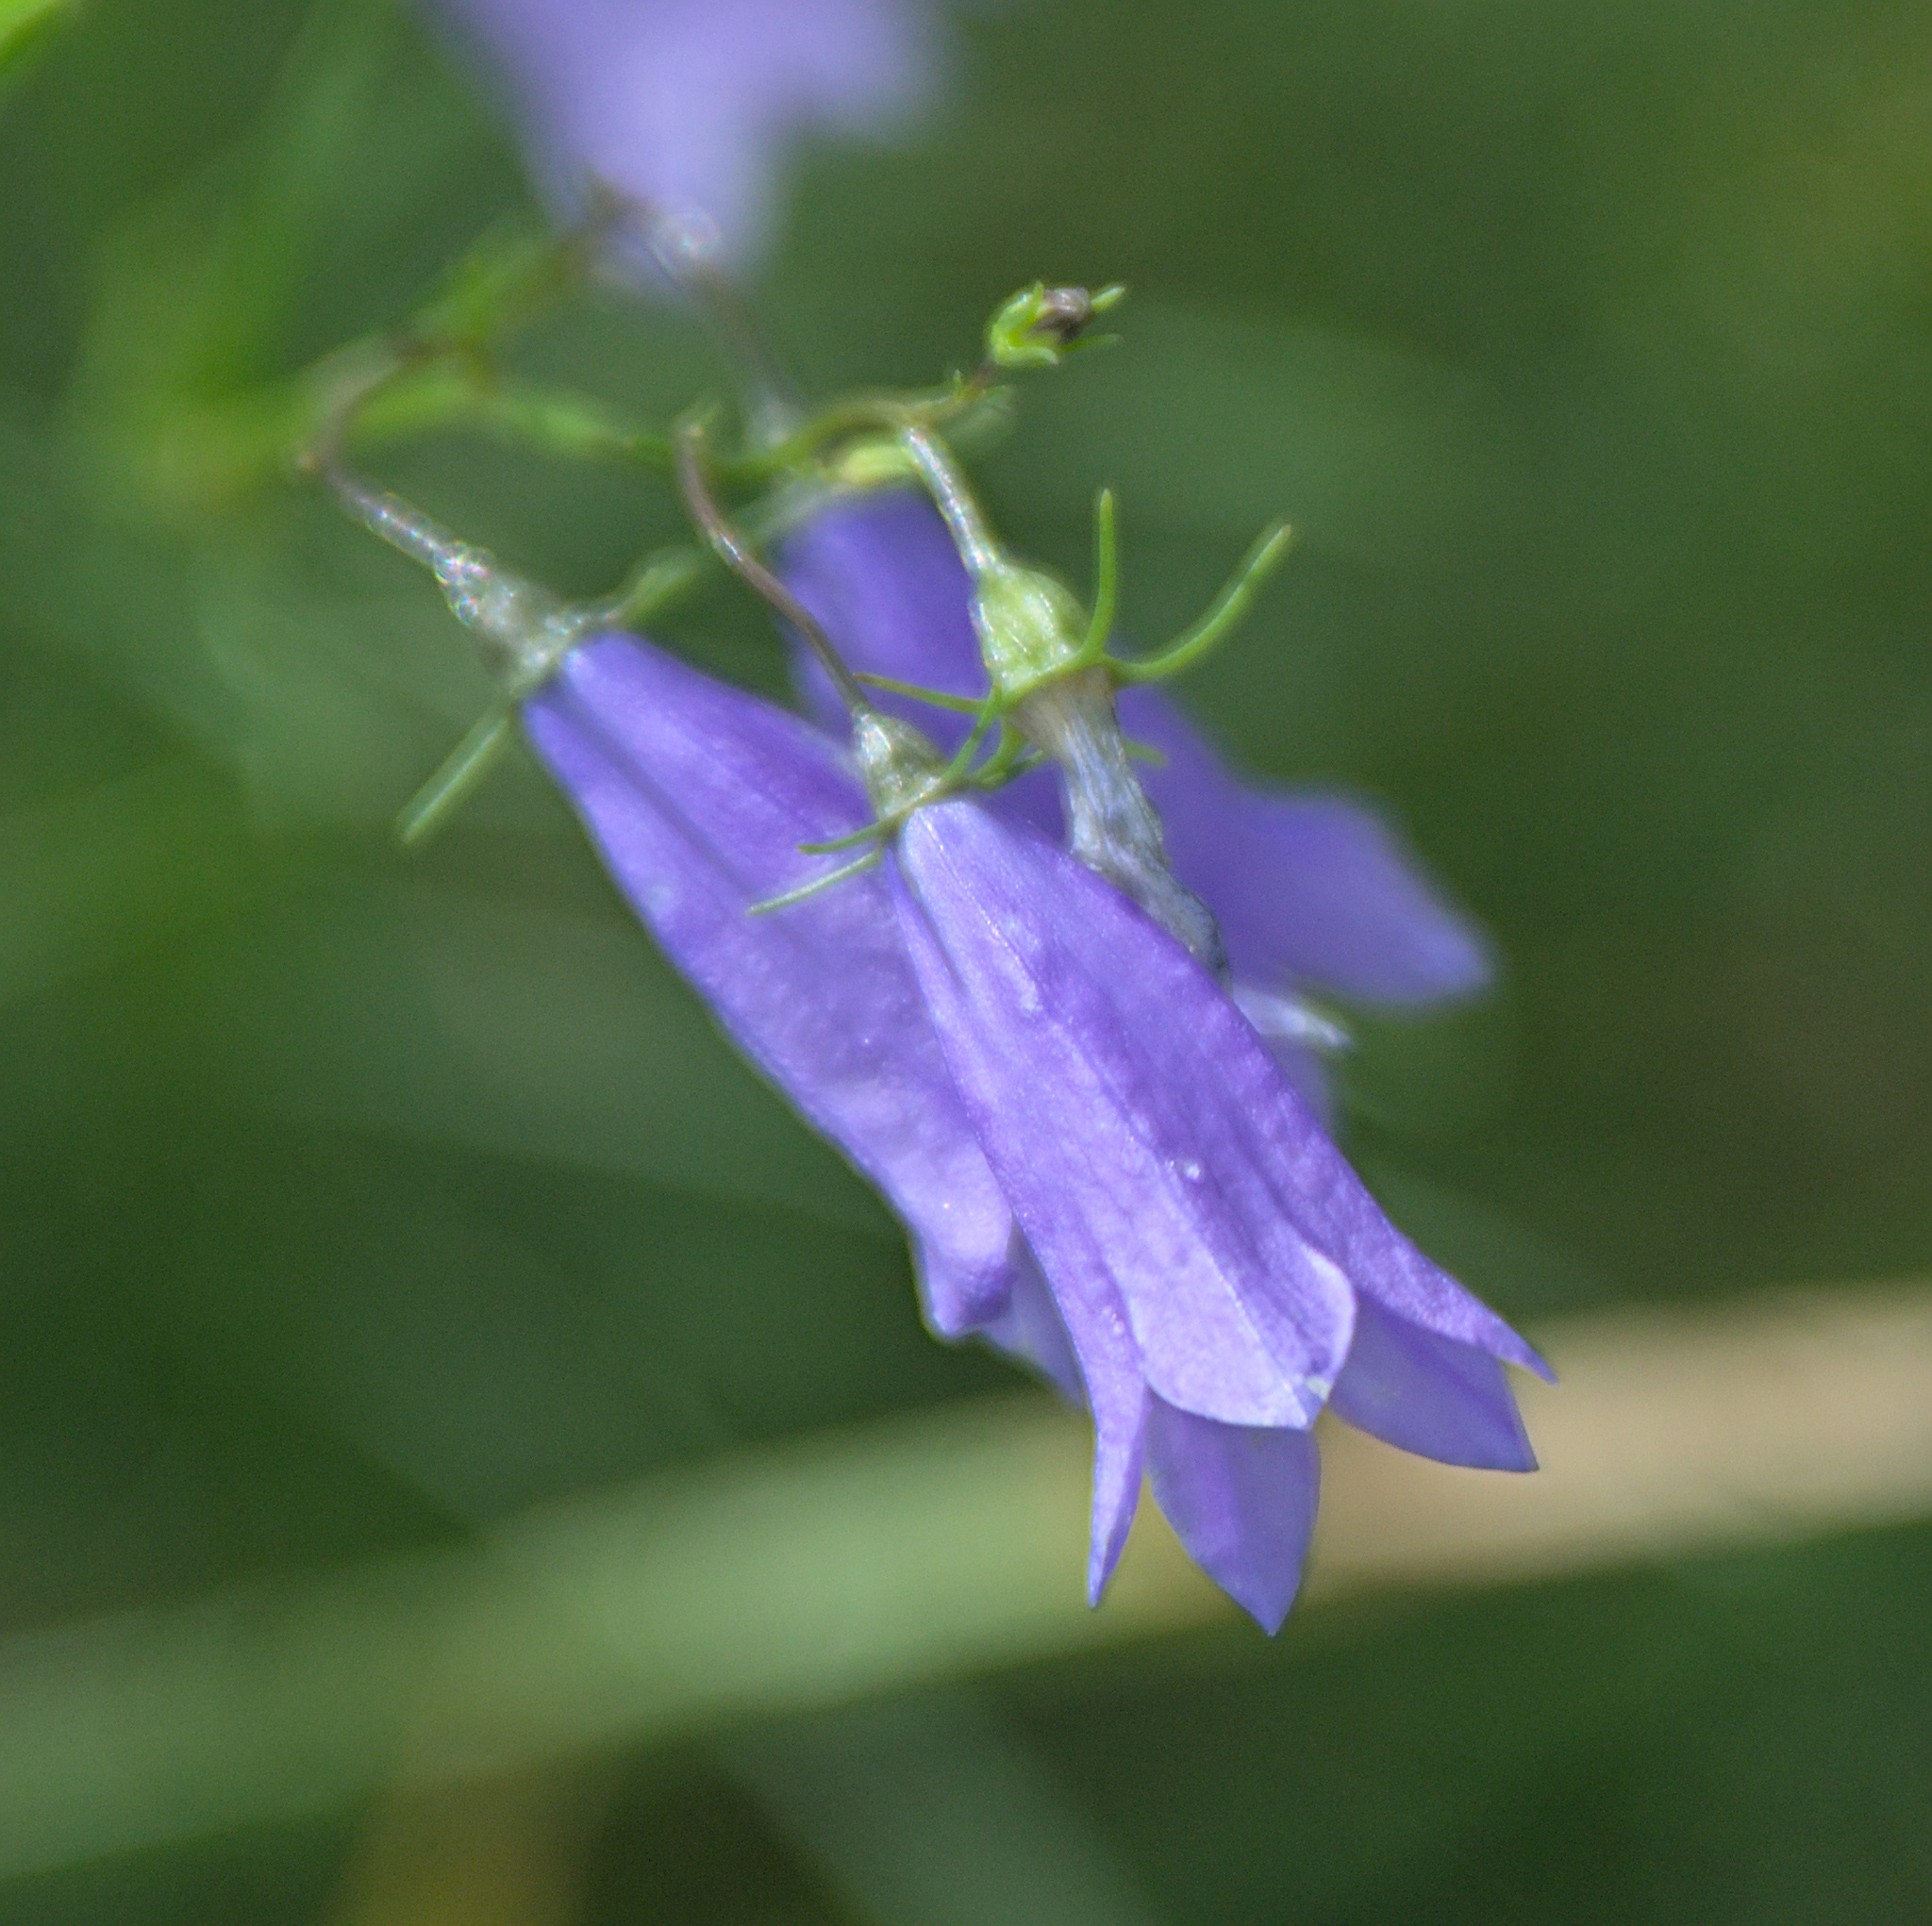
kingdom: Plantae
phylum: Tracheophyta
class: Magnoliopsida
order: Asterales
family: Campanulaceae
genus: Campanula
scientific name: Campanula rotundifolia
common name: Harebell
